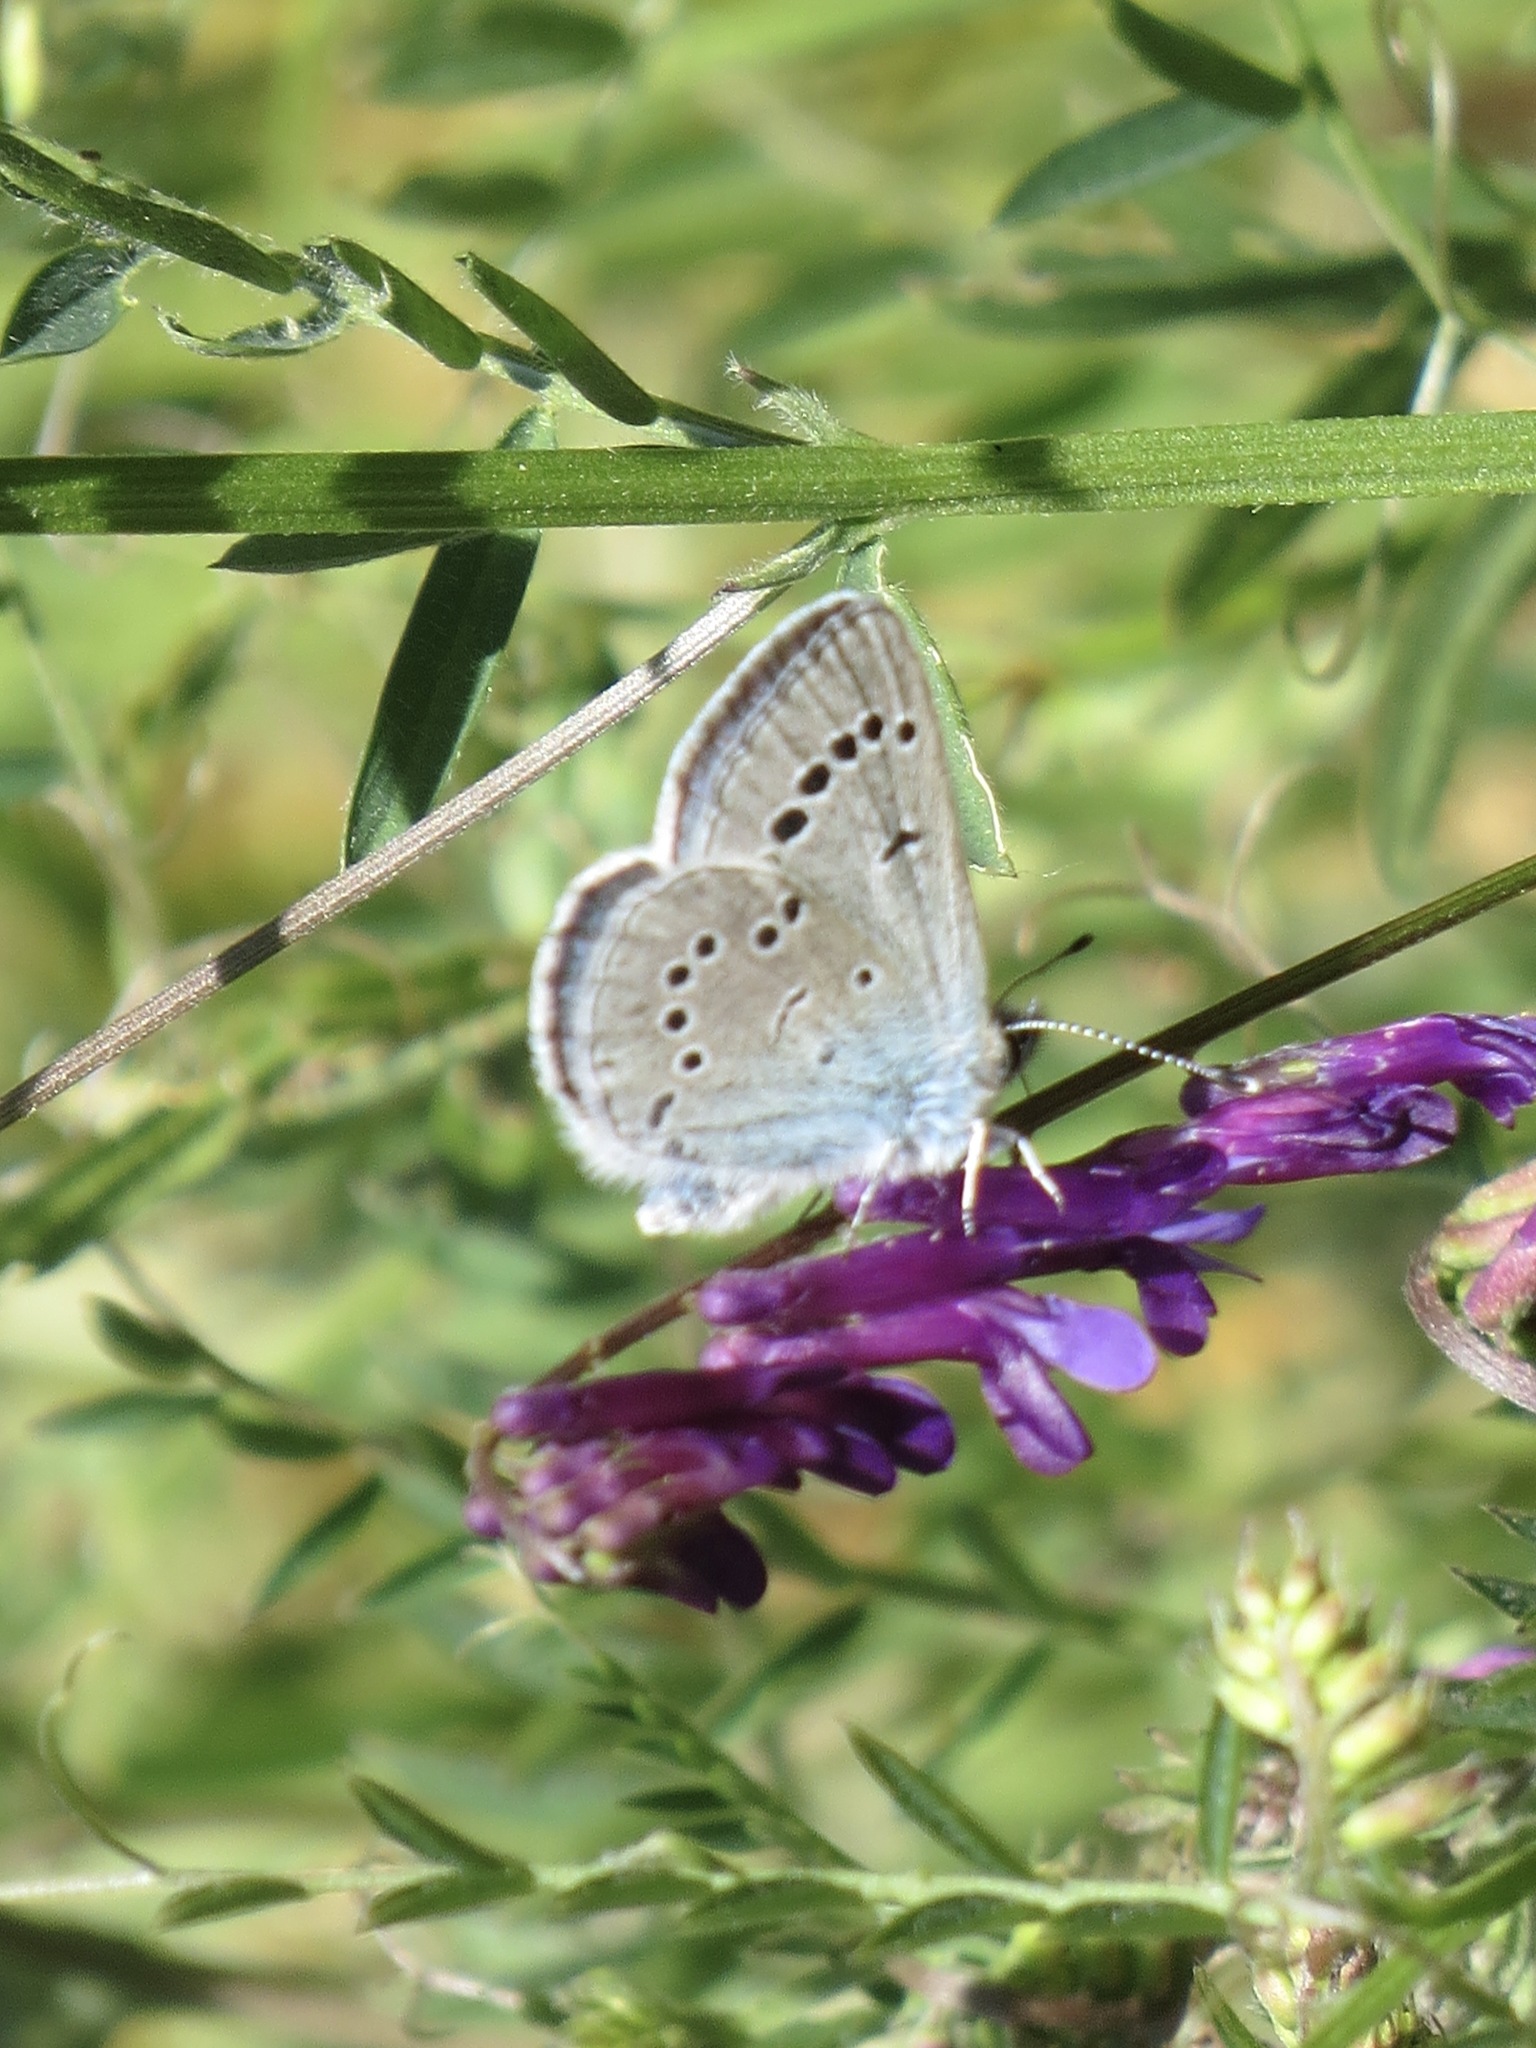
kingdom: Animalia
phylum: Arthropoda
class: Insecta
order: Lepidoptera
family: Lycaenidae
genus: Glaucopsyche
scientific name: Glaucopsyche lygdamus
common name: Silvery blue
